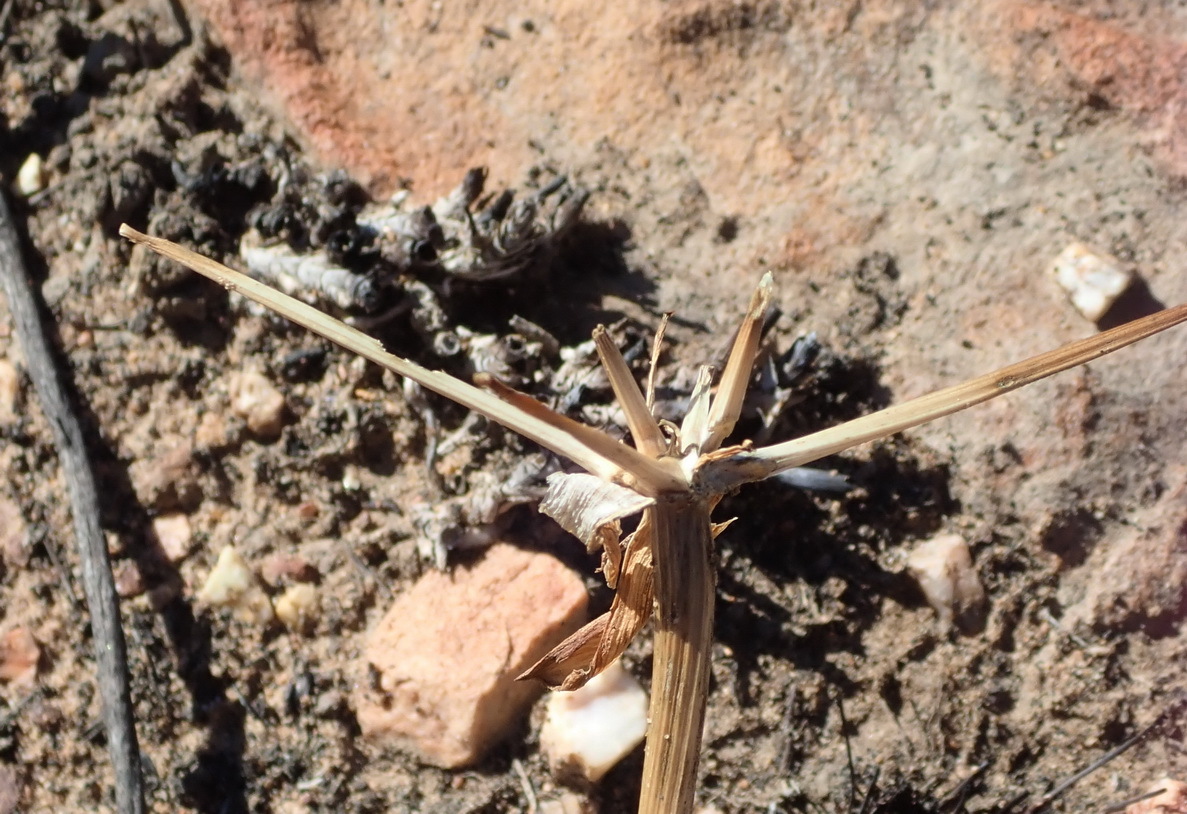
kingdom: Plantae
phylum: Tracheophyta
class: Liliopsida
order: Asparagales
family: Amaryllidaceae
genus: Brunsvigia
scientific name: Brunsvigia nervosa
